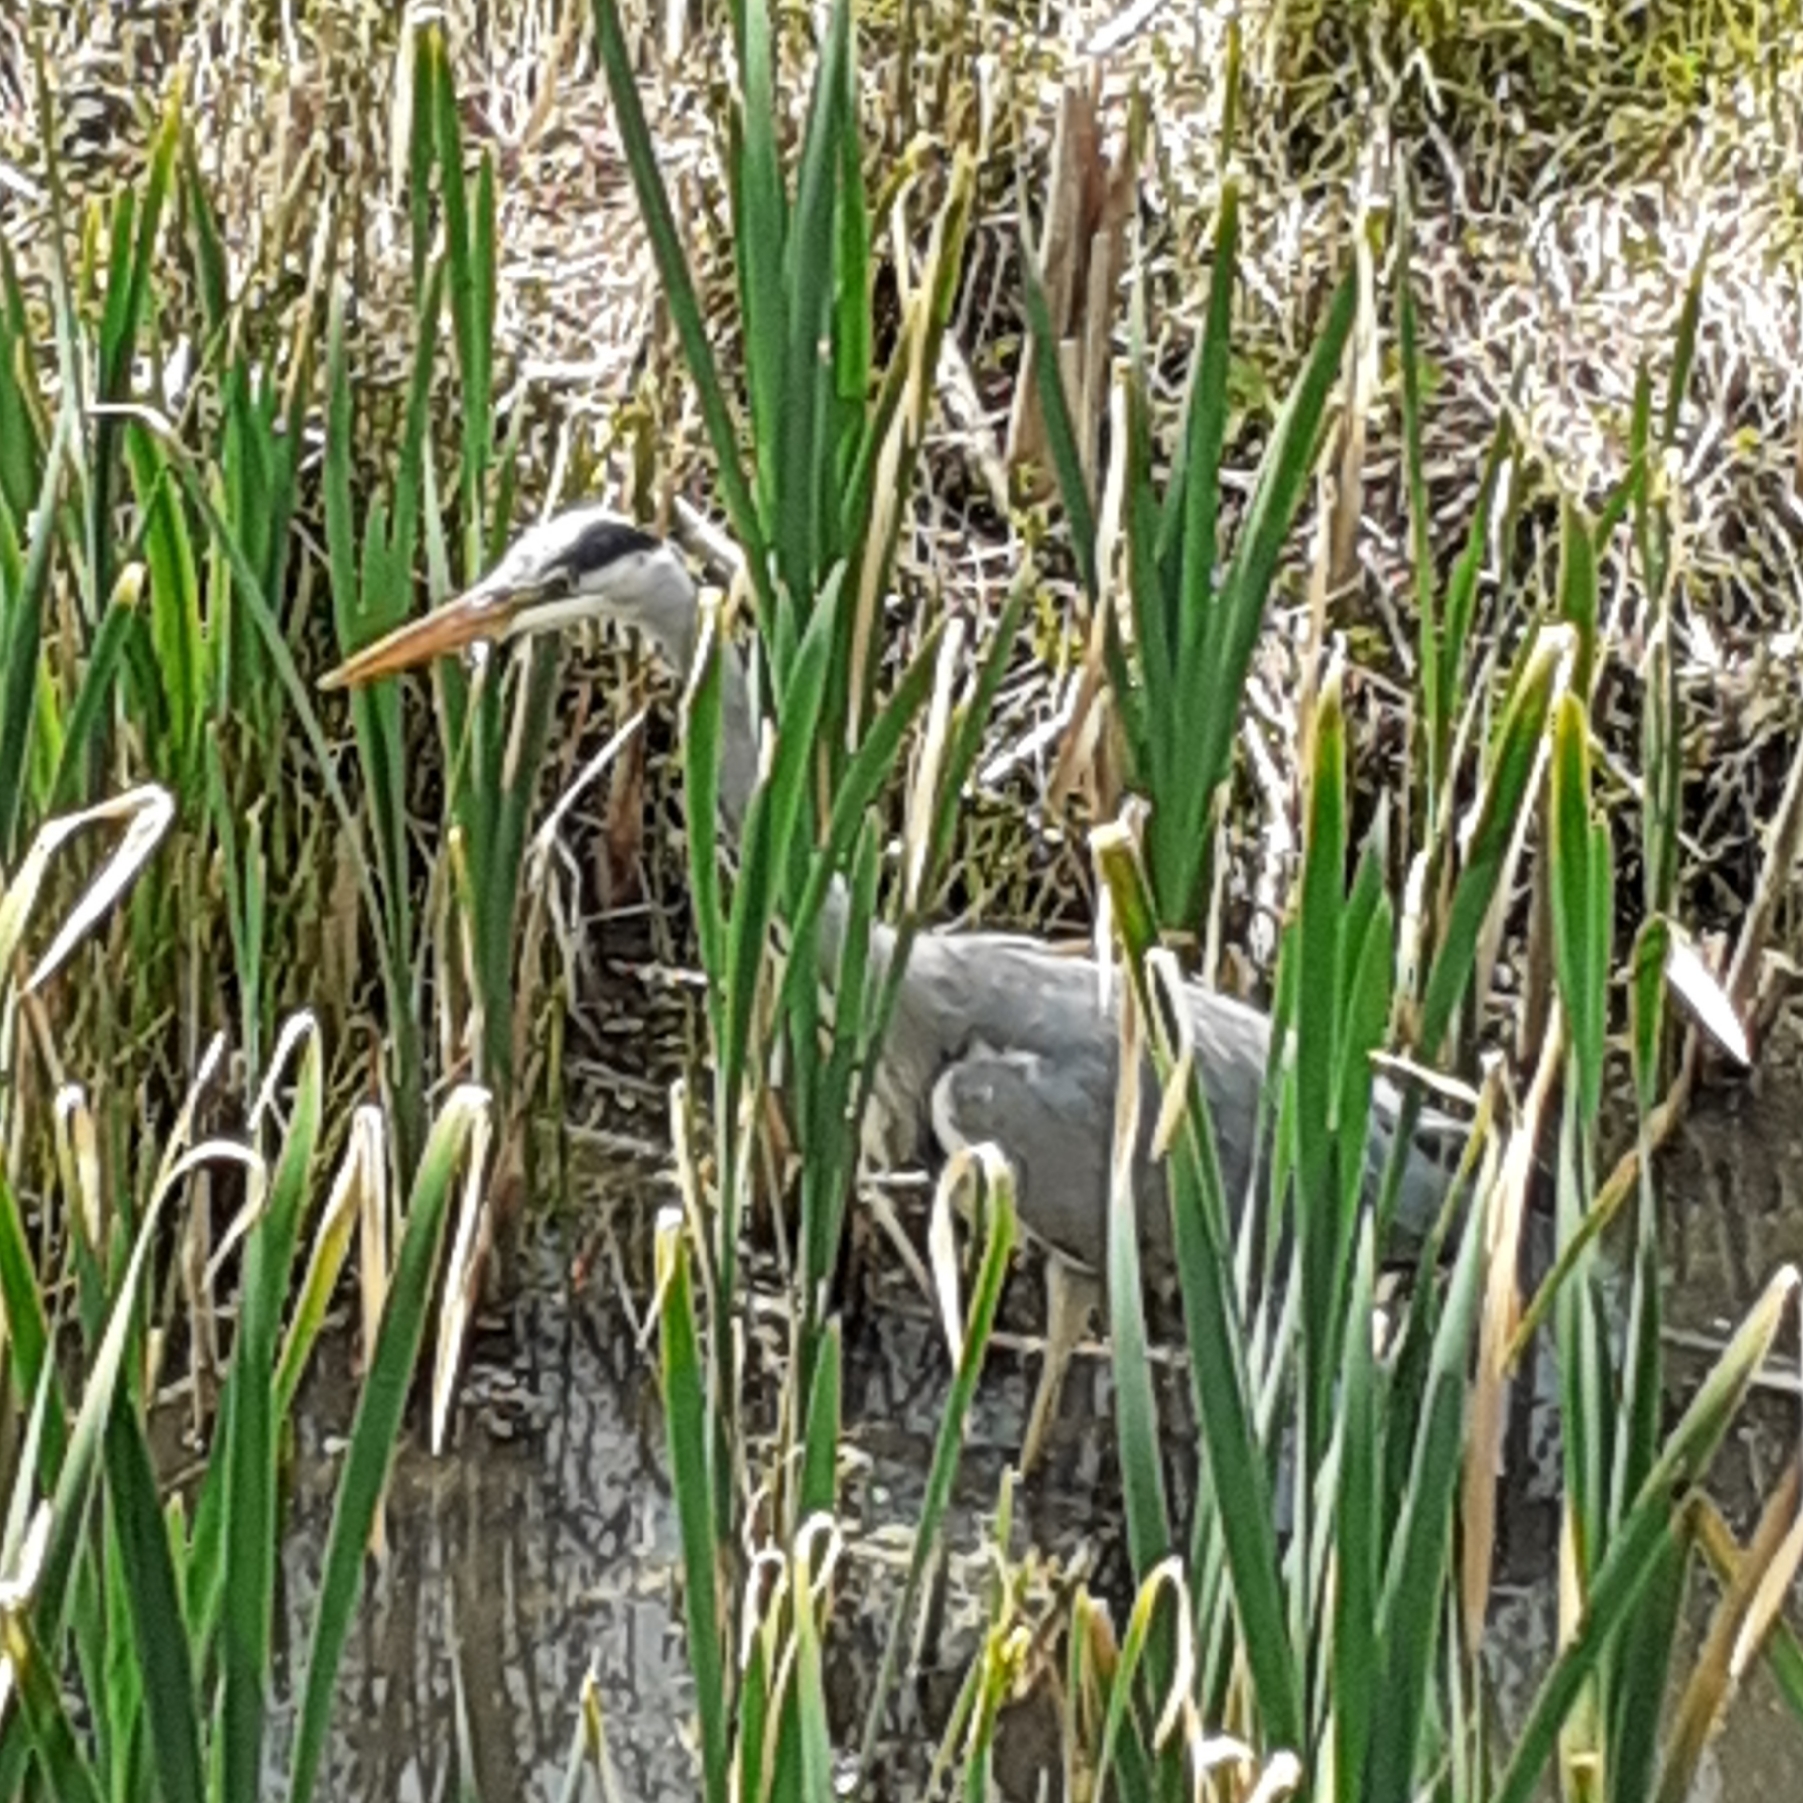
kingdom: Animalia
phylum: Chordata
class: Aves
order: Pelecaniformes
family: Ardeidae
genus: Ardea
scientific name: Ardea cinerea
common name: Grey heron
